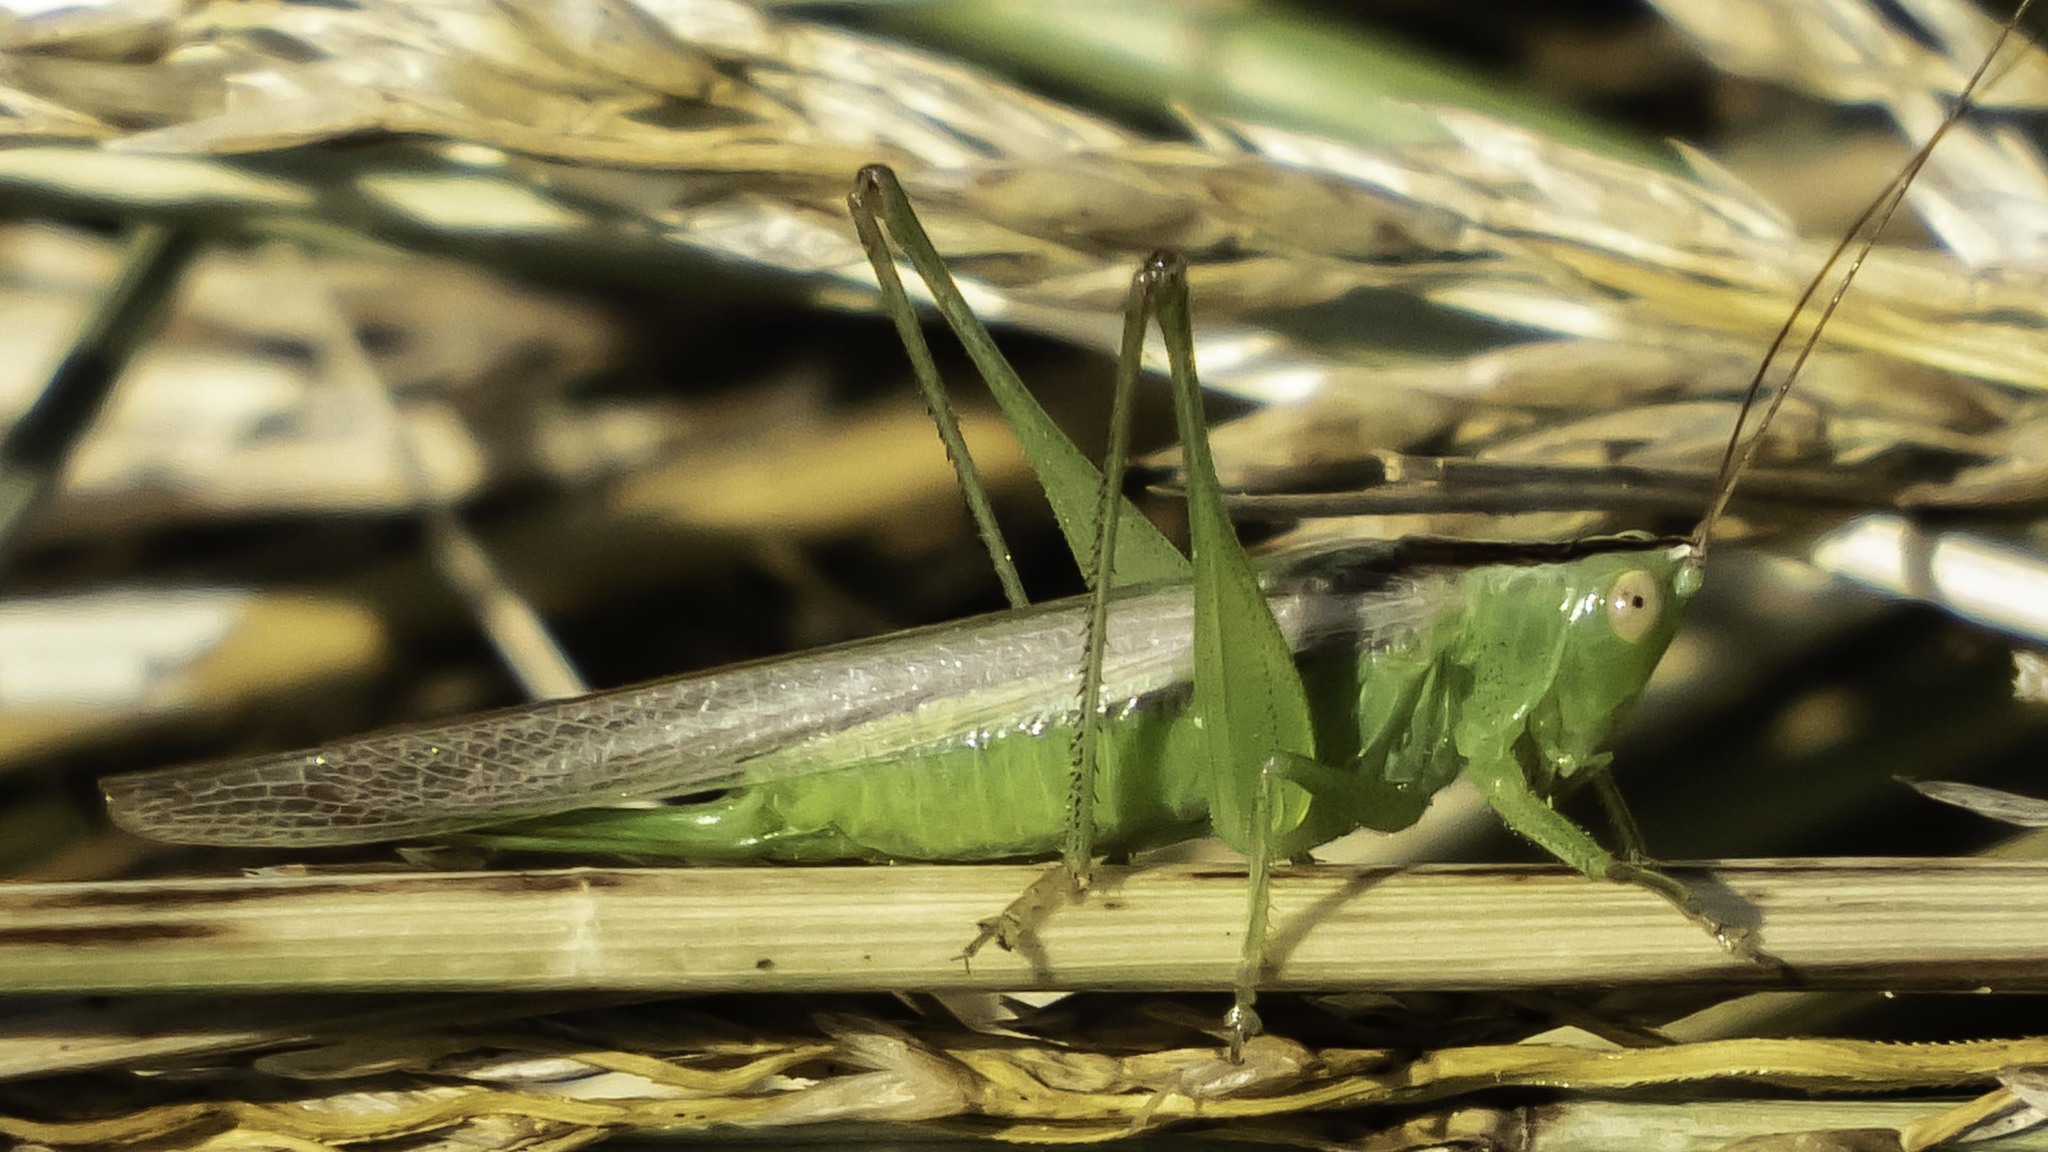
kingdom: Animalia
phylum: Arthropoda
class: Insecta
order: Orthoptera
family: Tettigoniidae
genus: Conocephalus
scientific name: Conocephalus fasciatus
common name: Slender meadow katydid
